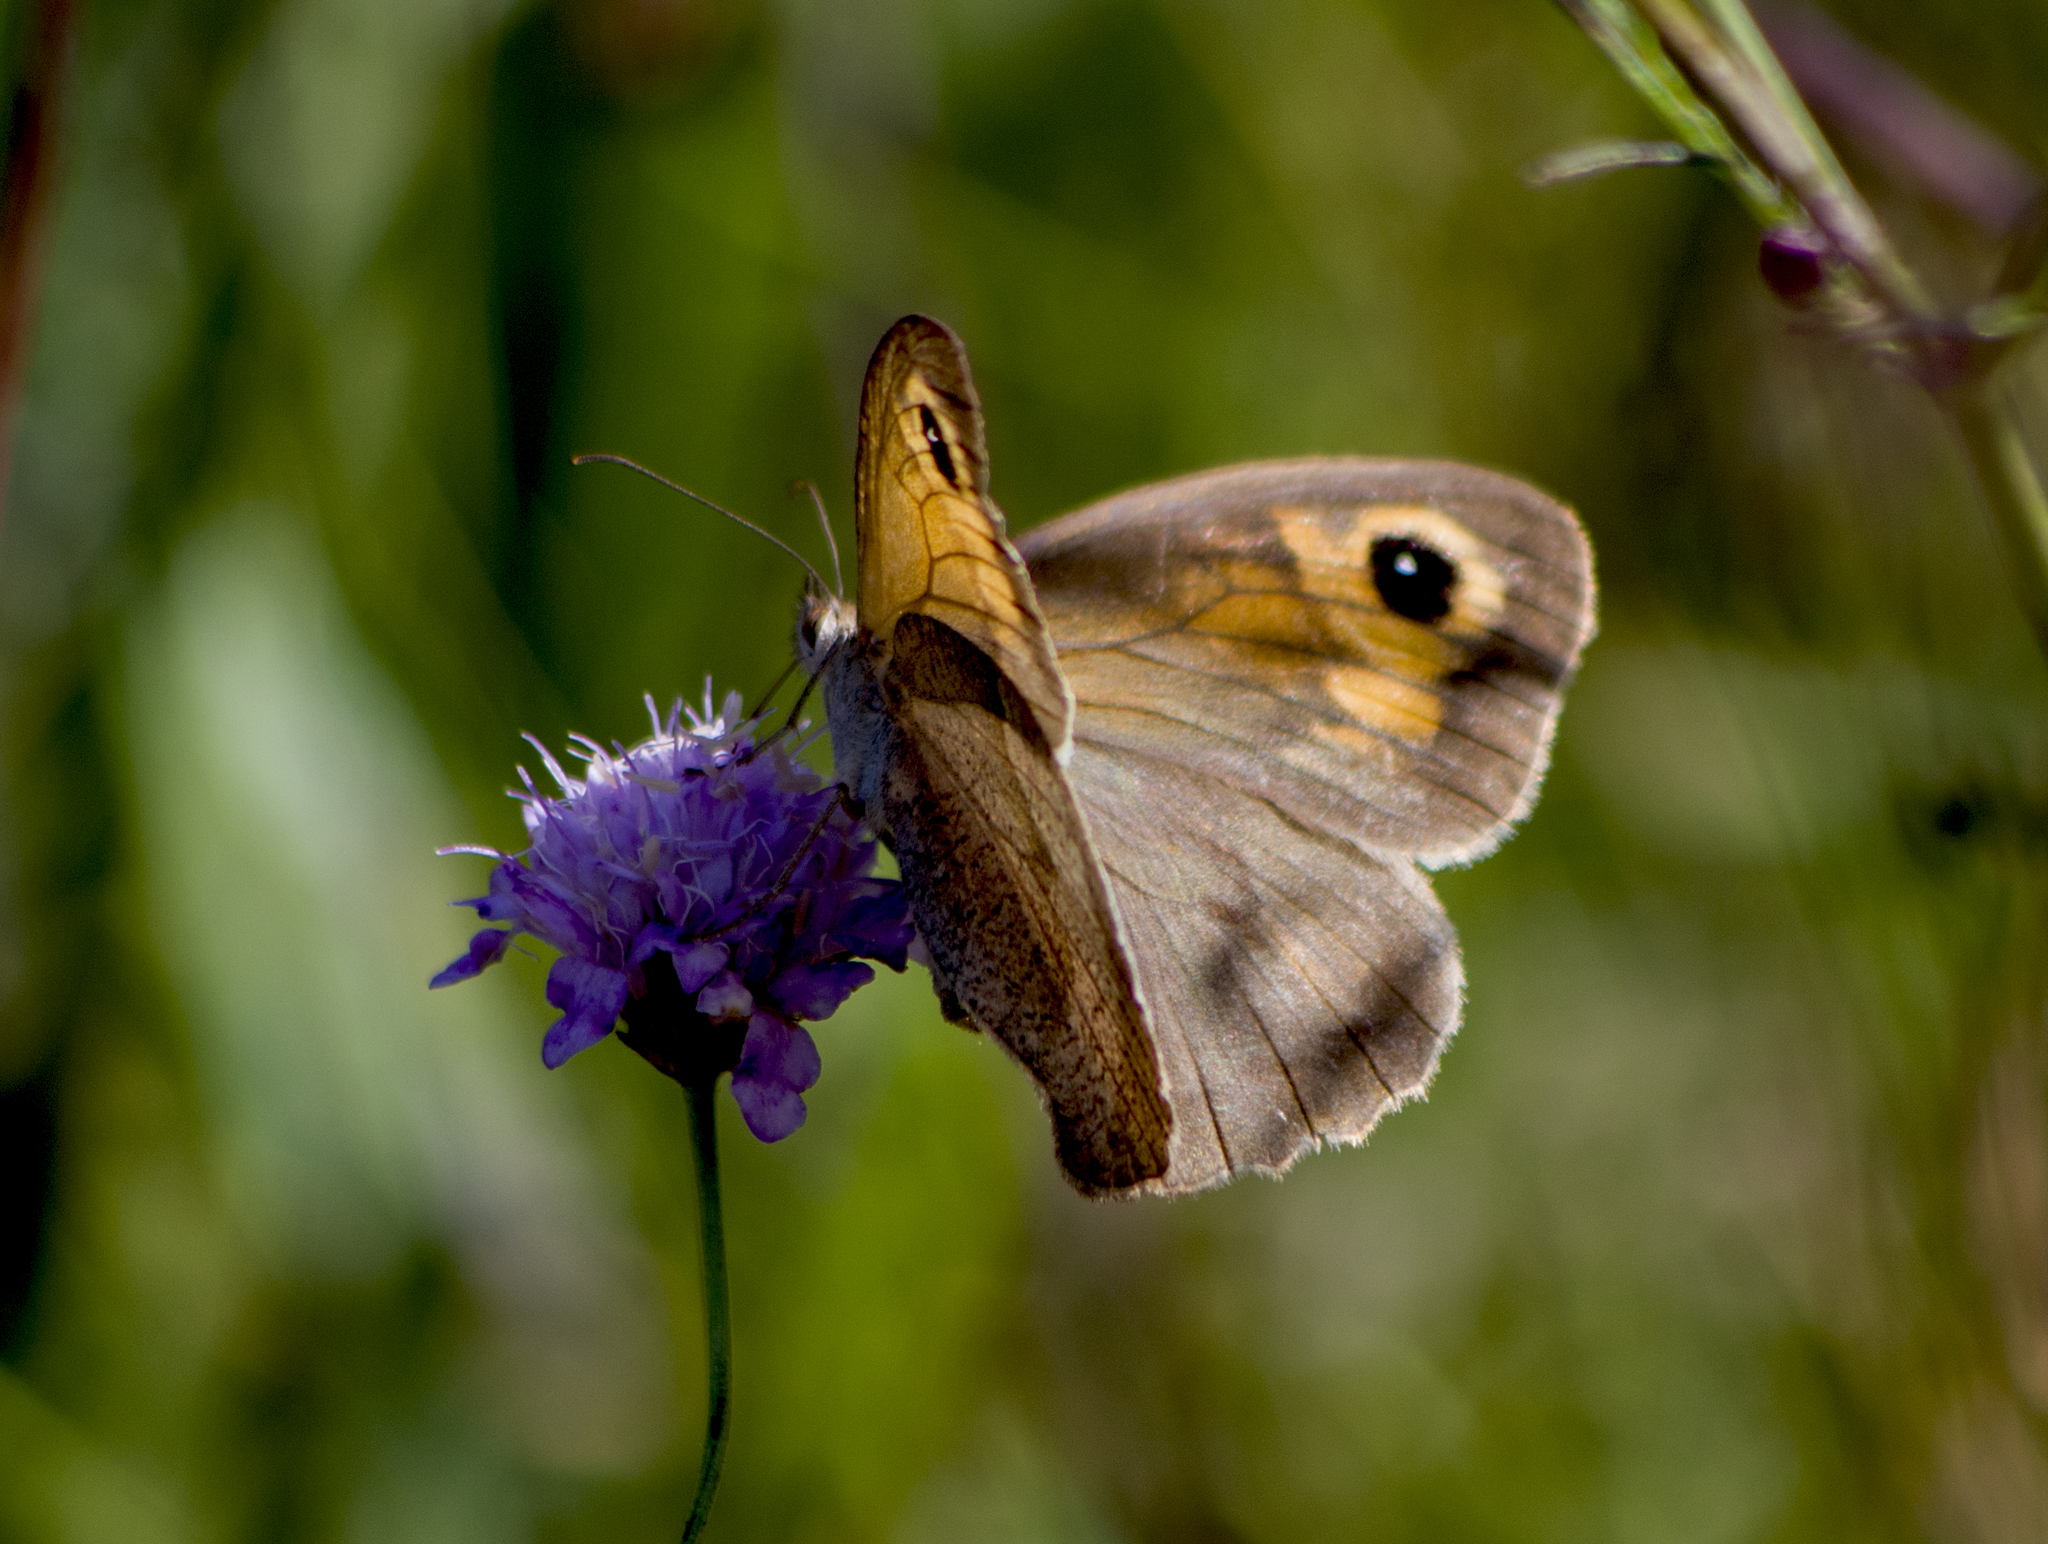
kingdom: Animalia
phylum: Arthropoda
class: Insecta
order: Lepidoptera
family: Nymphalidae
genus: Maniola
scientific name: Maniola jurtina
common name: Meadow brown
